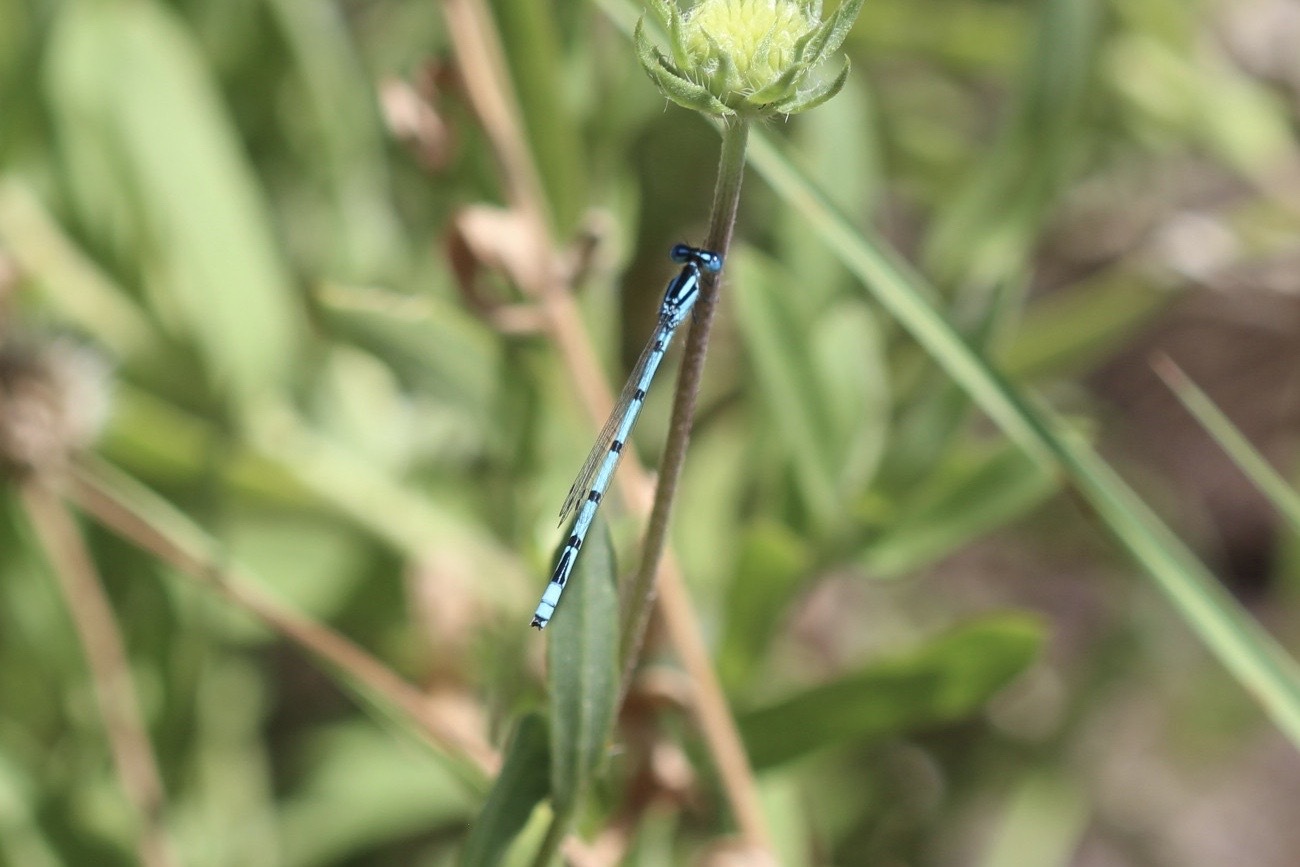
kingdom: Animalia
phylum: Arthropoda
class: Insecta
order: Odonata
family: Coenagrionidae
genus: Enallagma
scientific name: Enallagma doubledayi
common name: Atlantic bluet
